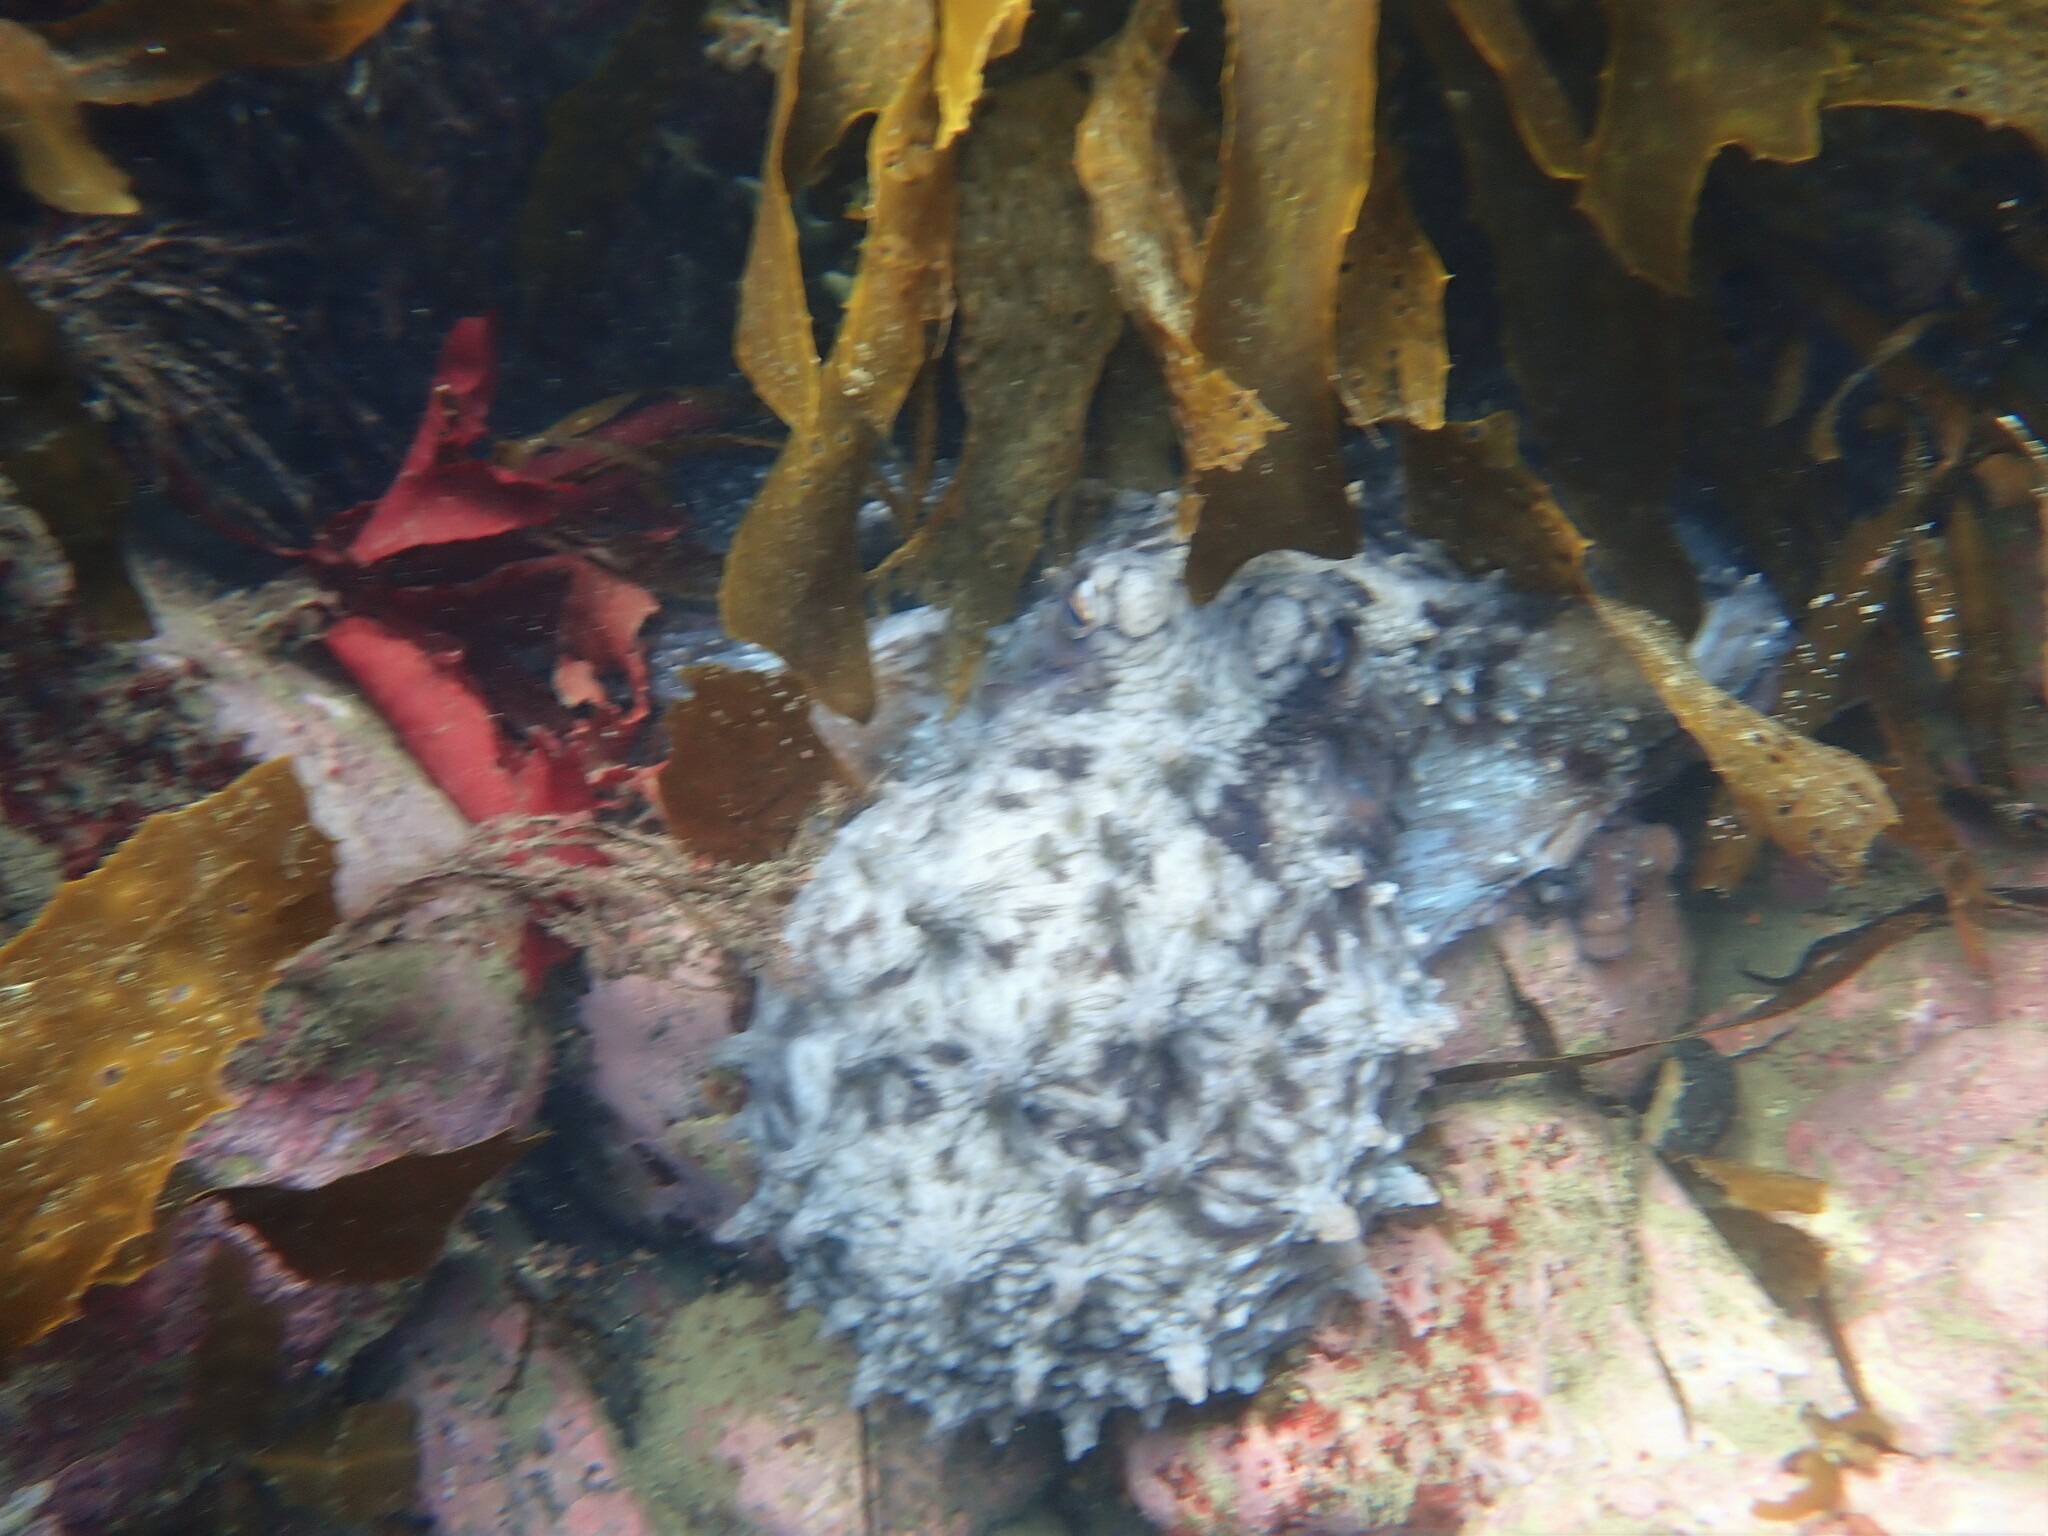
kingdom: Animalia
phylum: Mollusca
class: Cephalopoda
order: Octopoda
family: Octopodidae
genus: Macroctopus
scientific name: Macroctopus maorum
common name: Maori octopus
